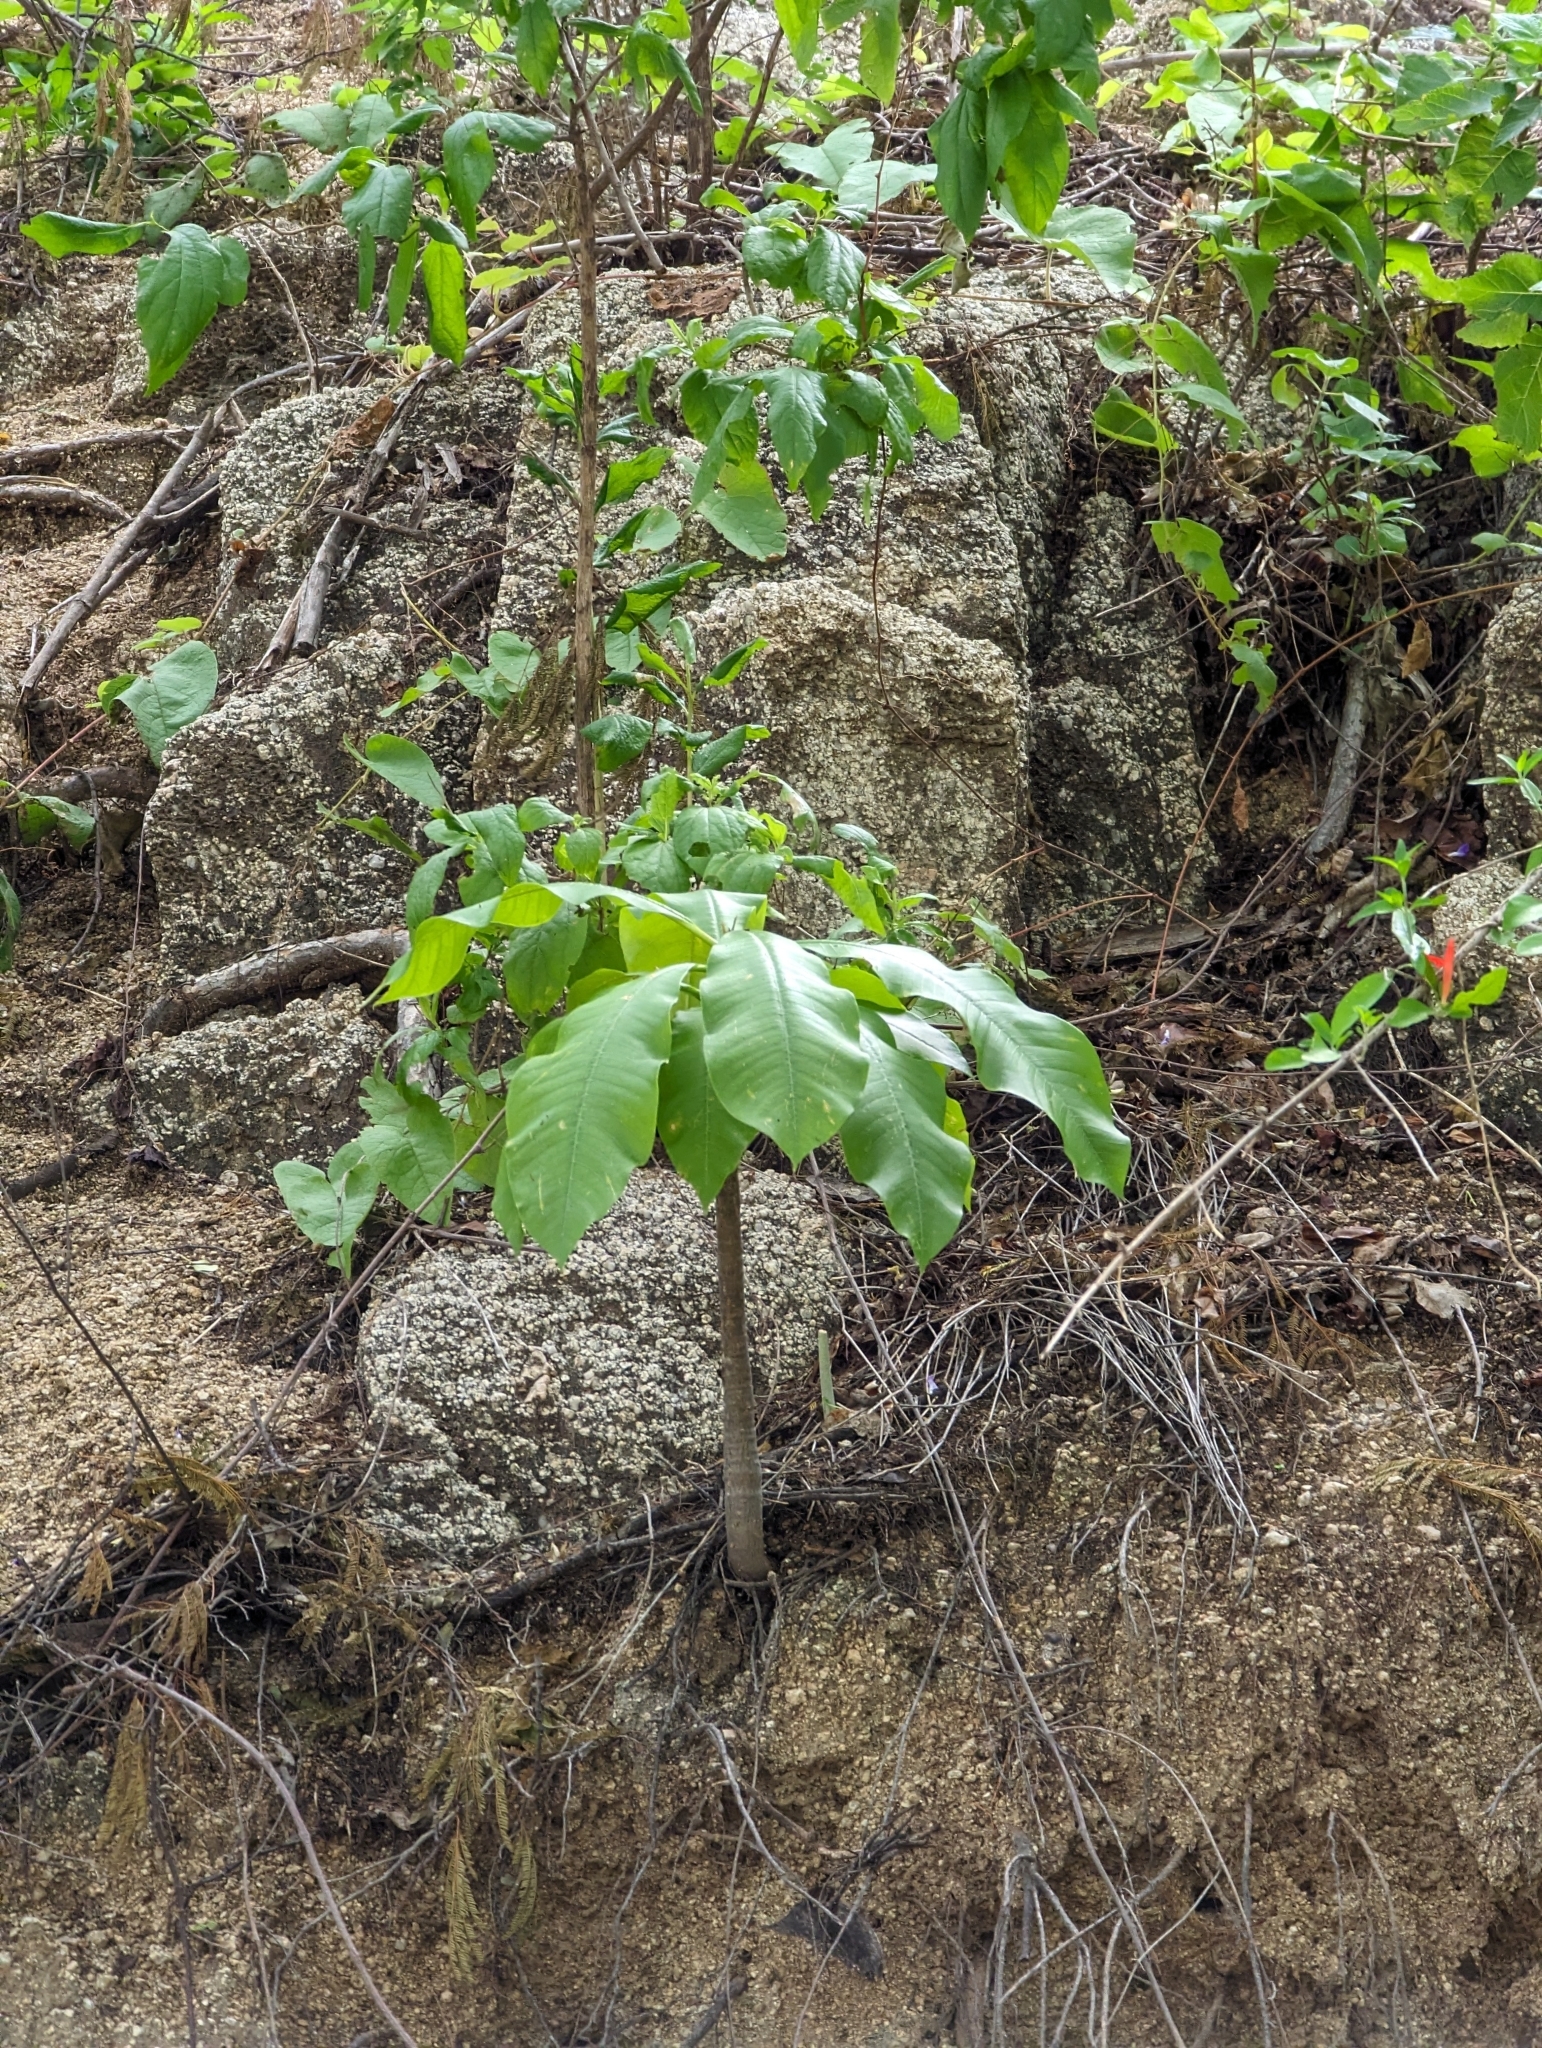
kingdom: Plantae
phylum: Tracheophyta
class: Magnoliopsida
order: Gentianales
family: Apocynaceae
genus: Plumeria
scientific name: Plumeria rubra
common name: Pagoda-tree
